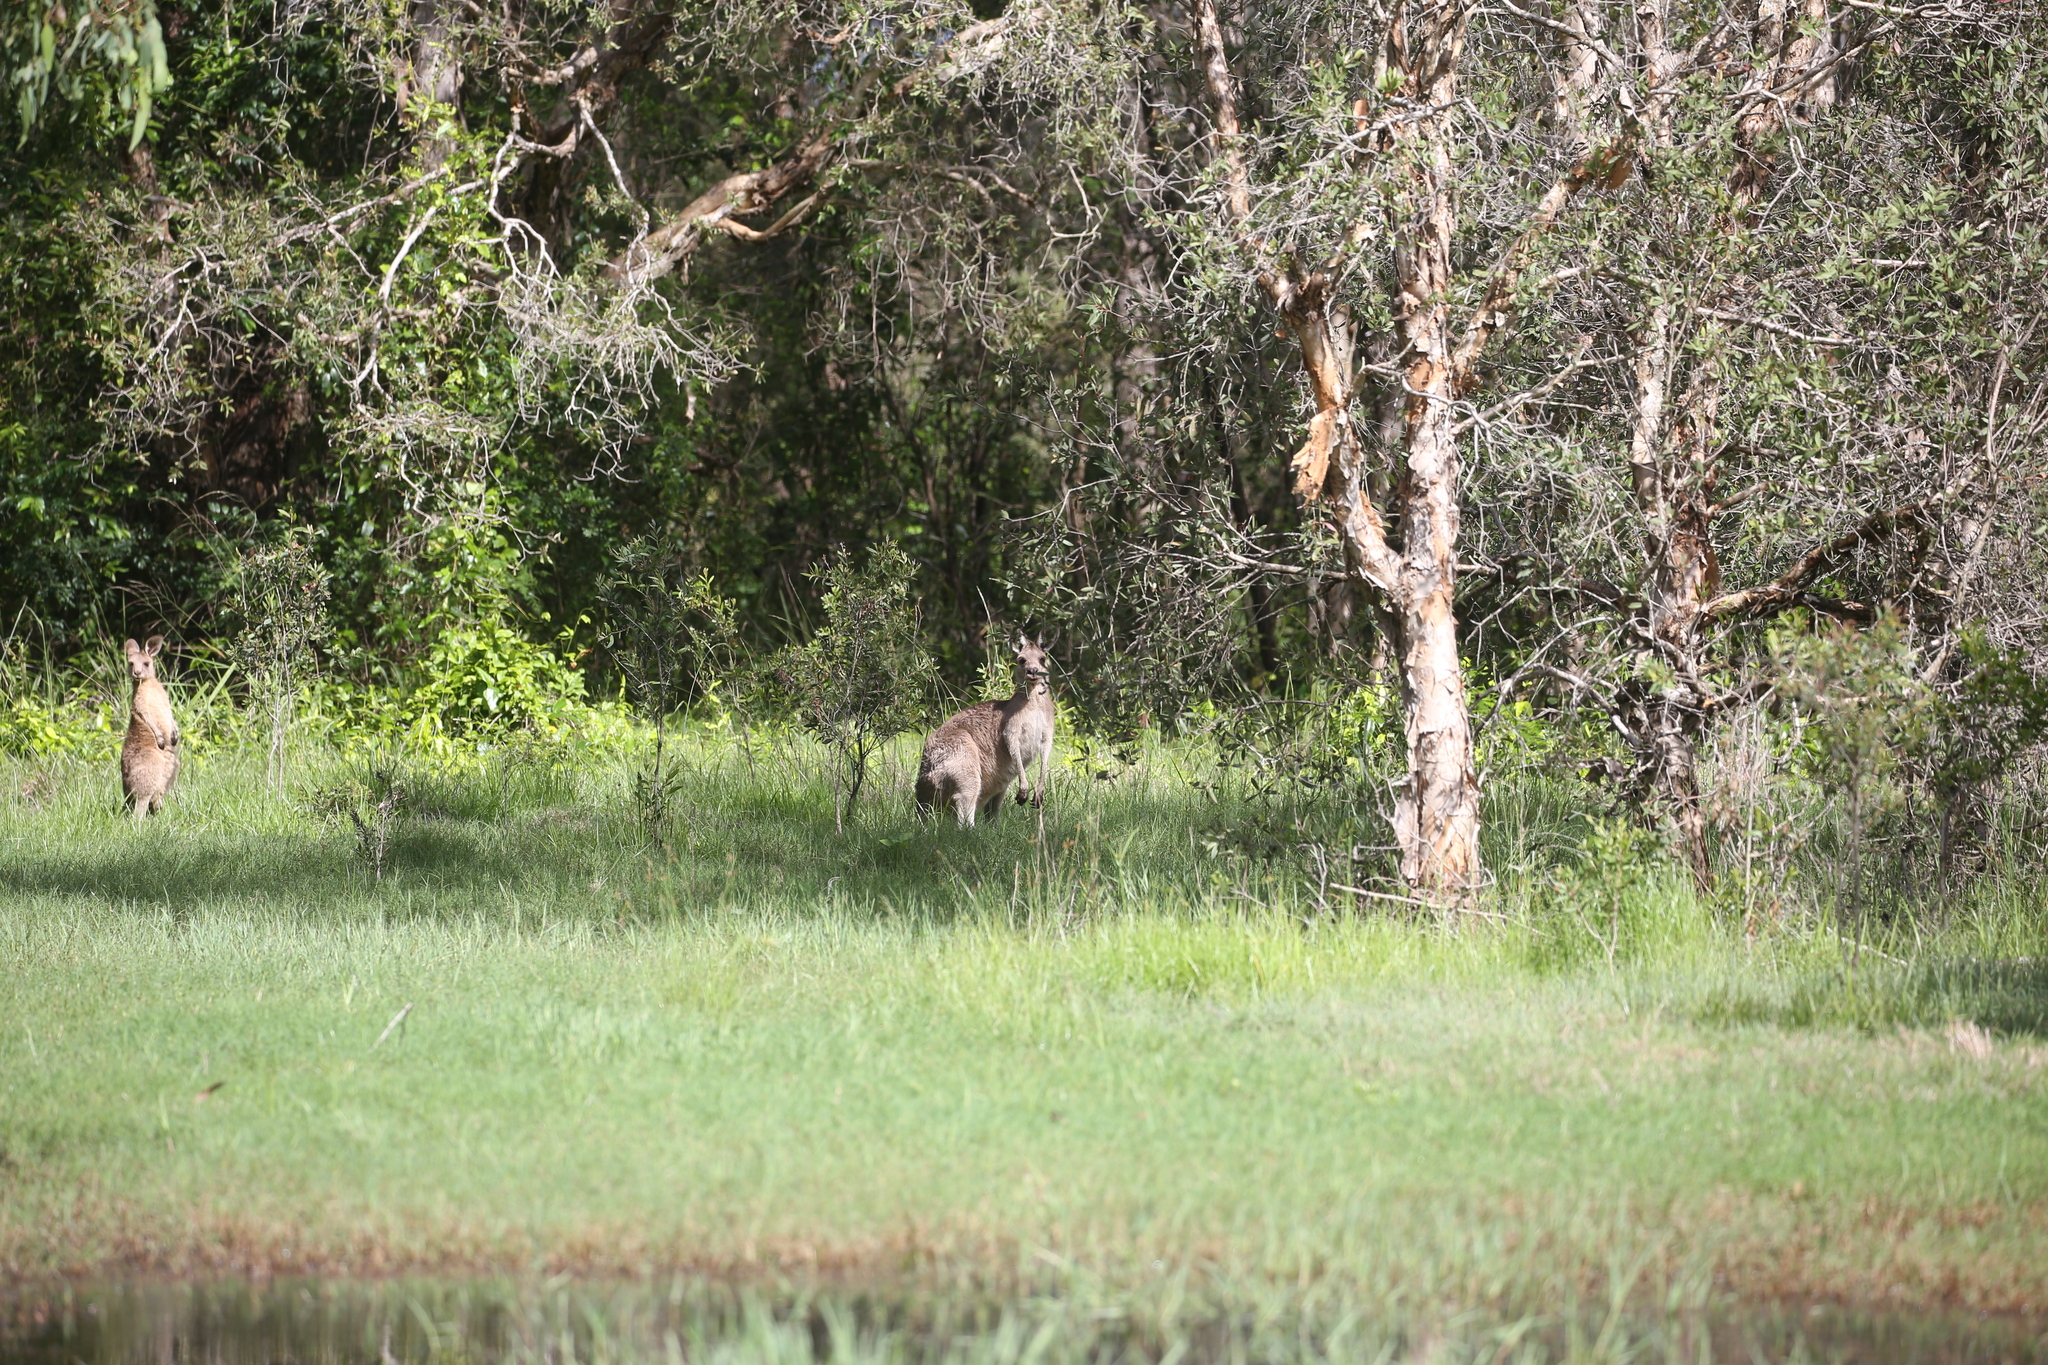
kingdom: Animalia
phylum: Chordata
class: Mammalia
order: Diprotodontia
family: Macropodidae
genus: Macropus
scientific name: Macropus giganteus
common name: Eastern grey kangaroo
